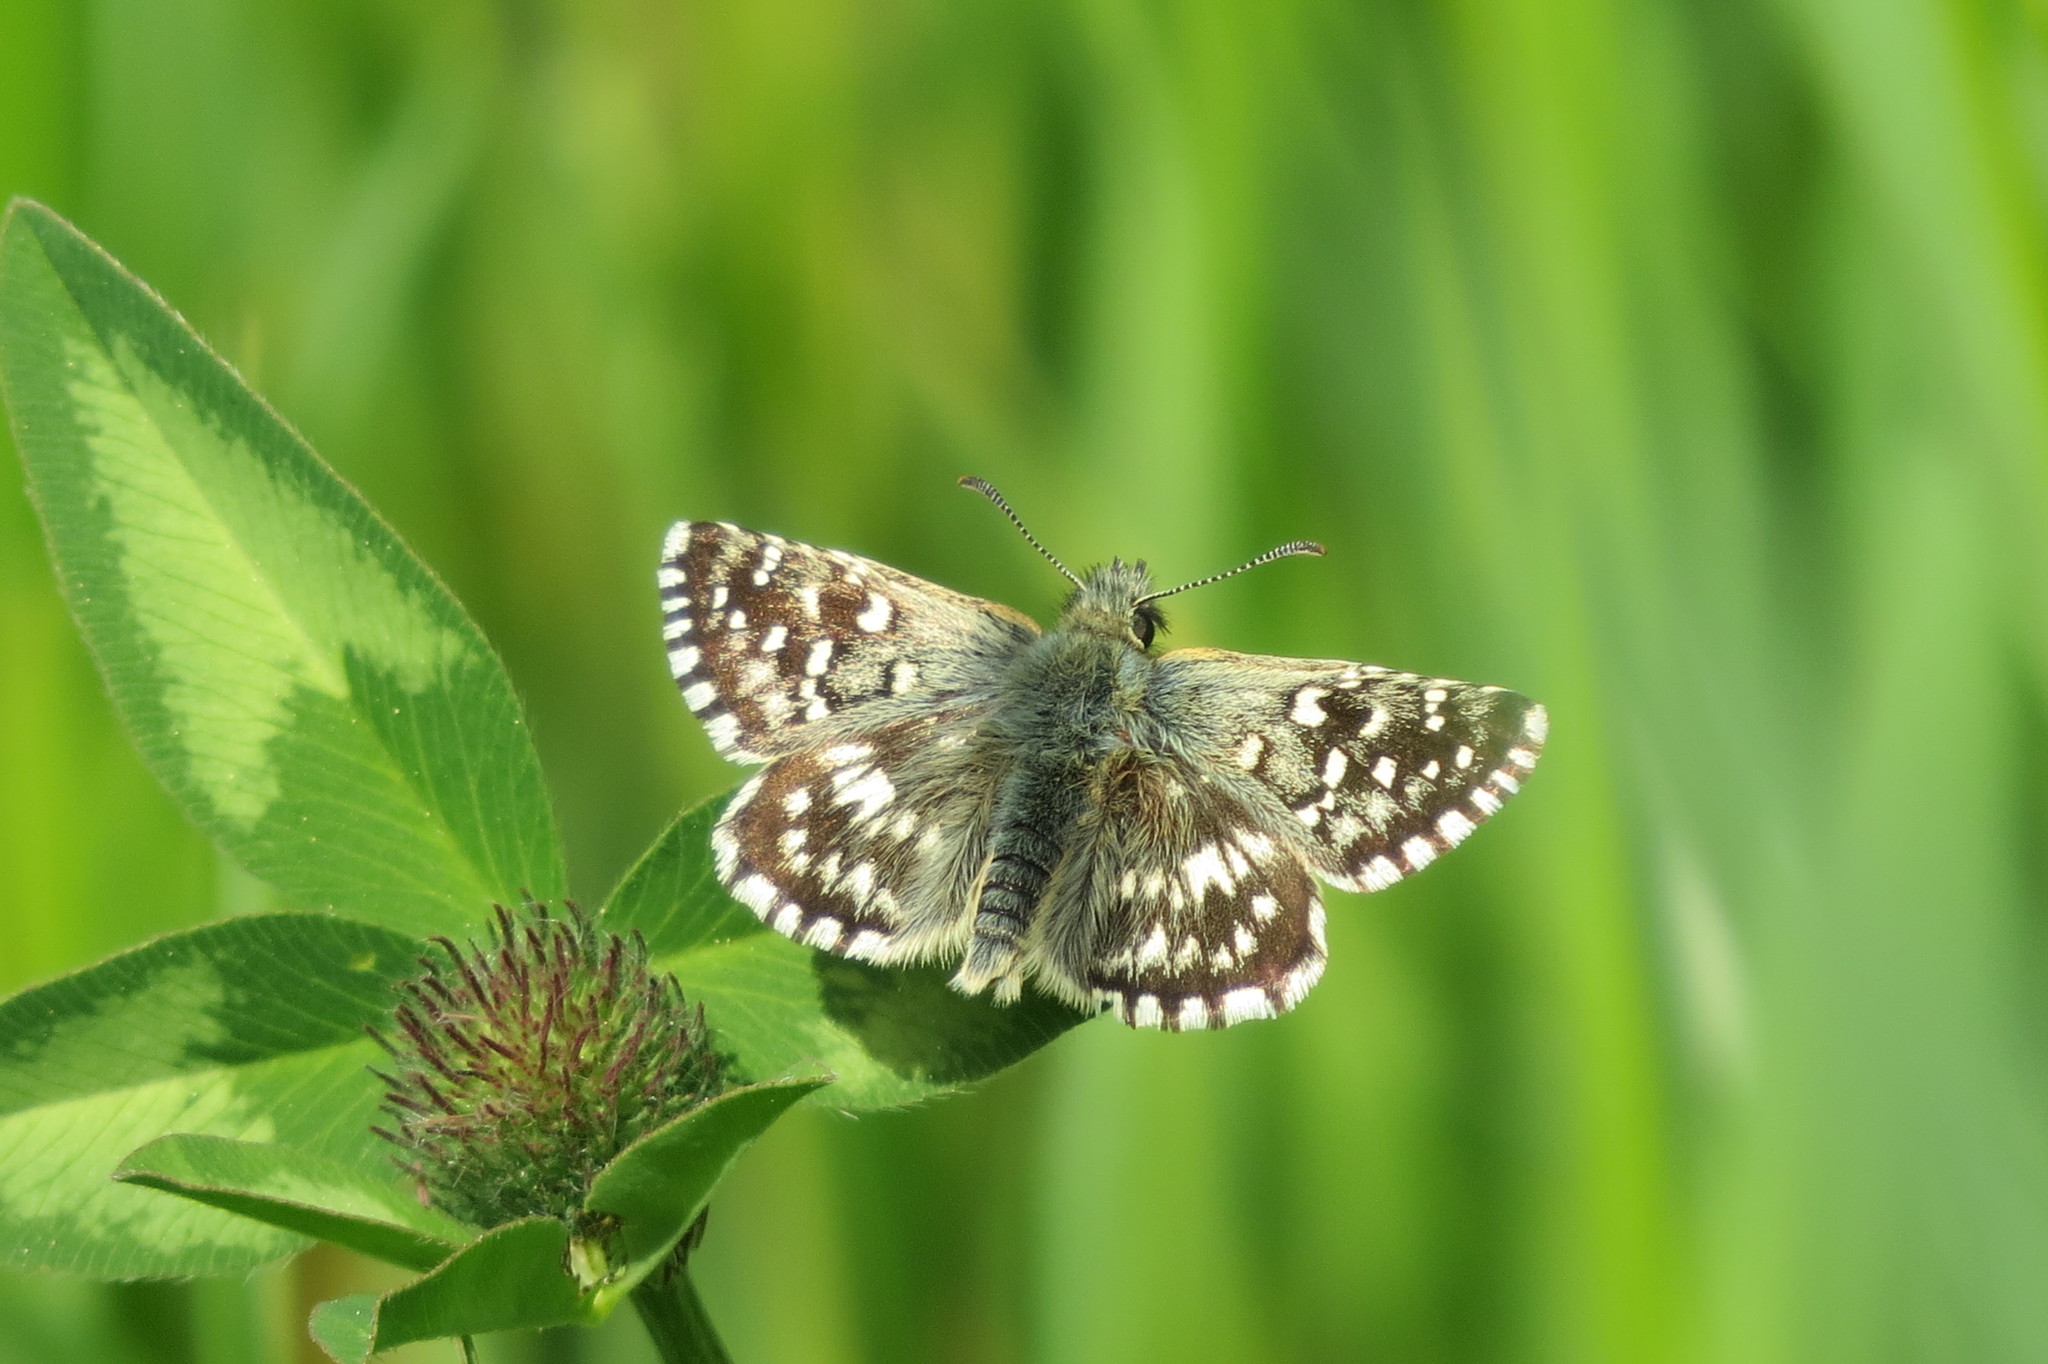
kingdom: Animalia
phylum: Arthropoda
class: Insecta
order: Lepidoptera
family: Hesperiidae
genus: Pyrgus
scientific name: Pyrgus malvoides
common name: Southern grizzled skipper
